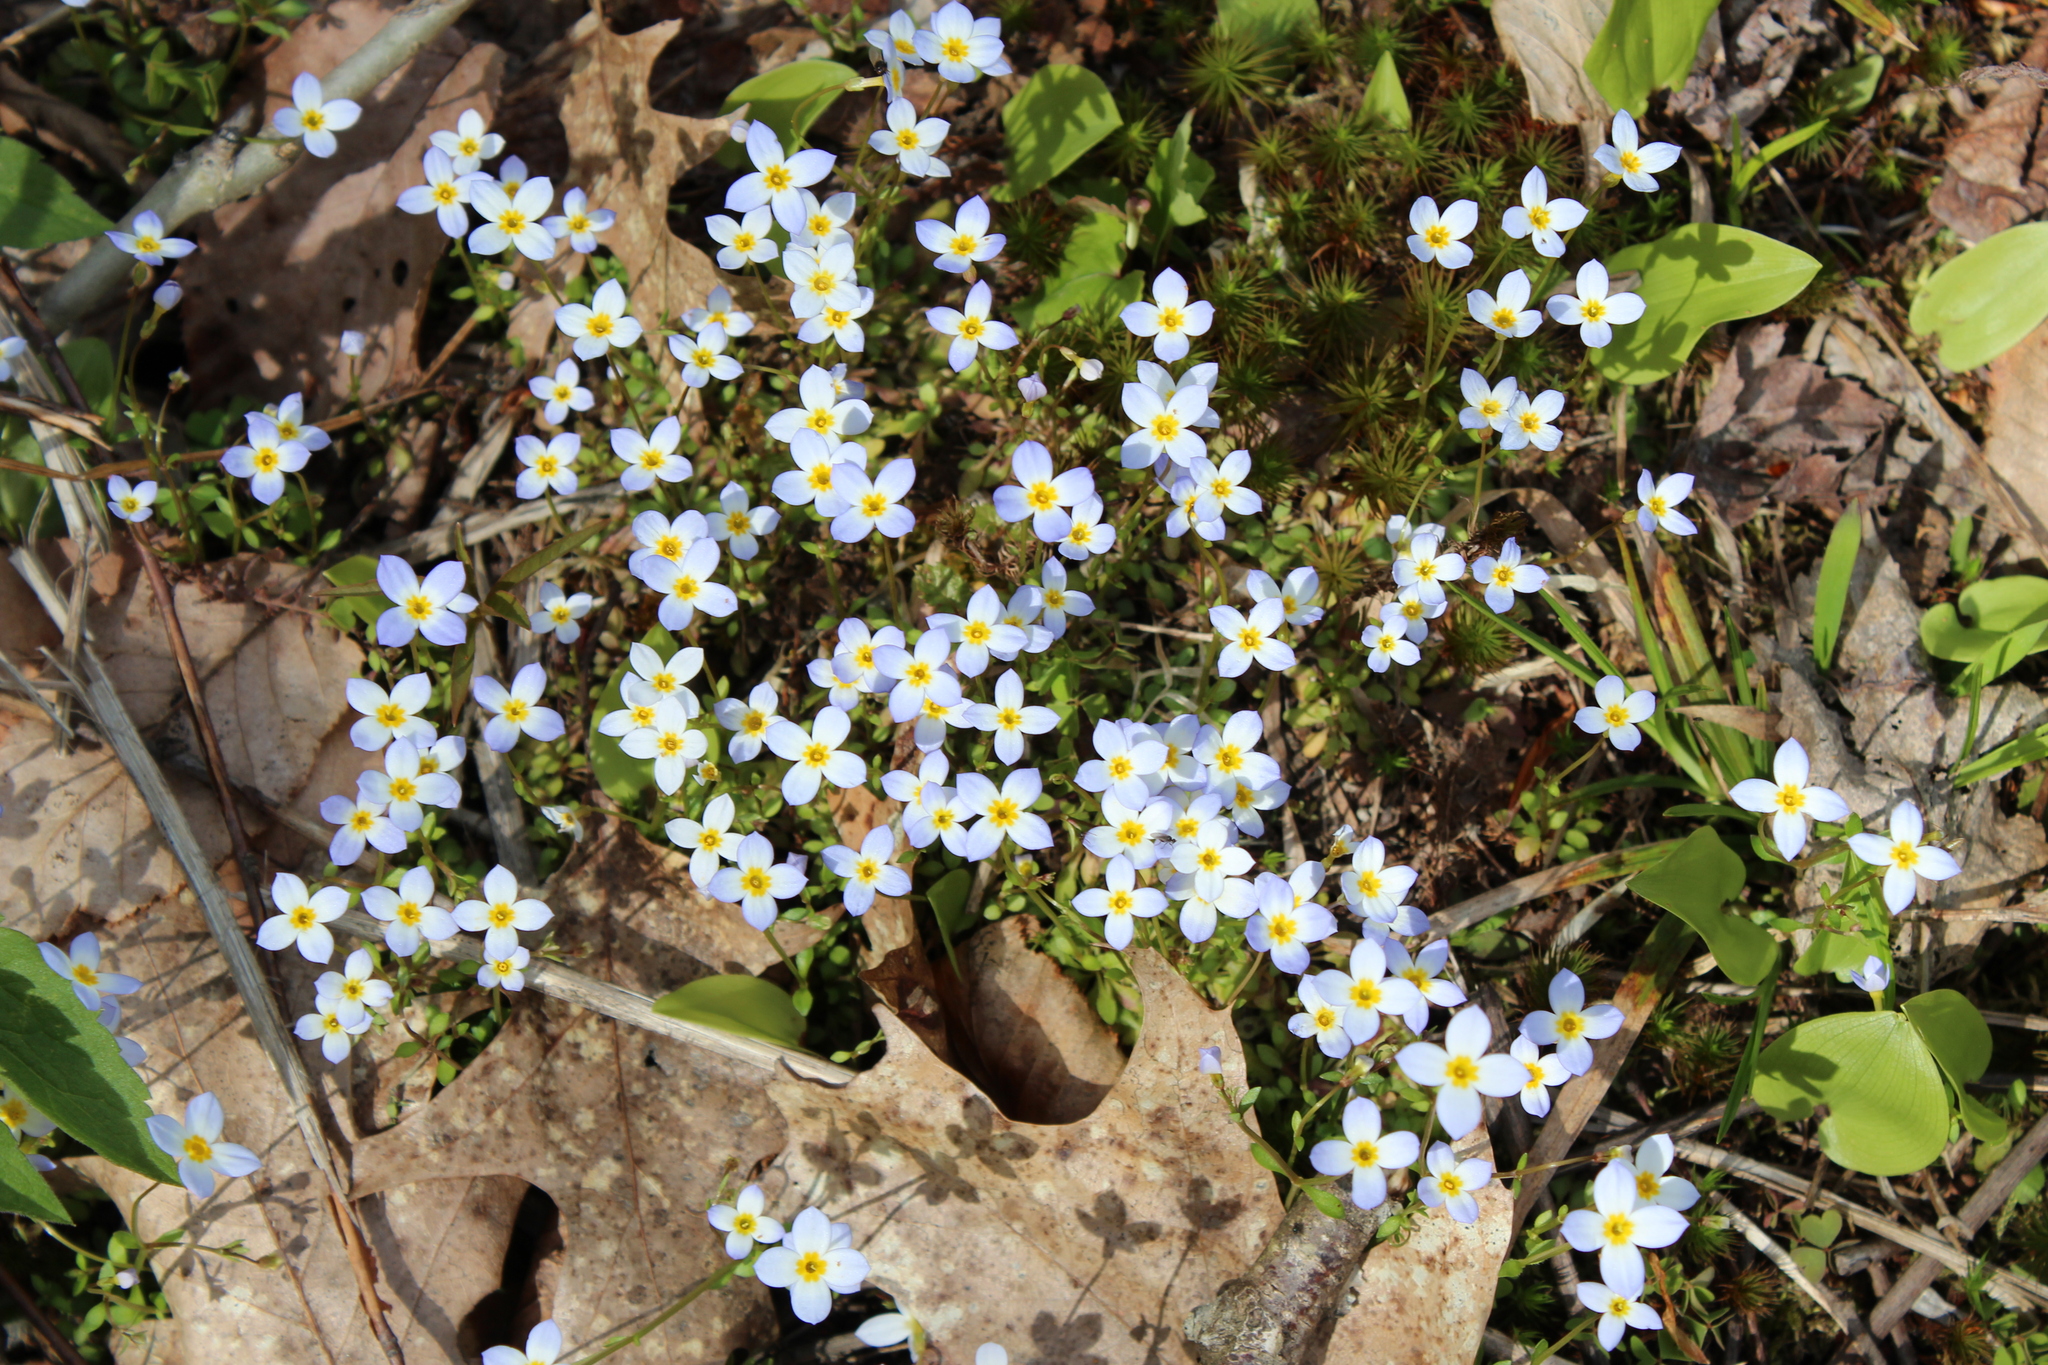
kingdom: Plantae
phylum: Tracheophyta
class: Magnoliopsida
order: Gentianales
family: Rubiaceae
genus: Houstonia
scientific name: Houstonia caerulea
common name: Bluets
